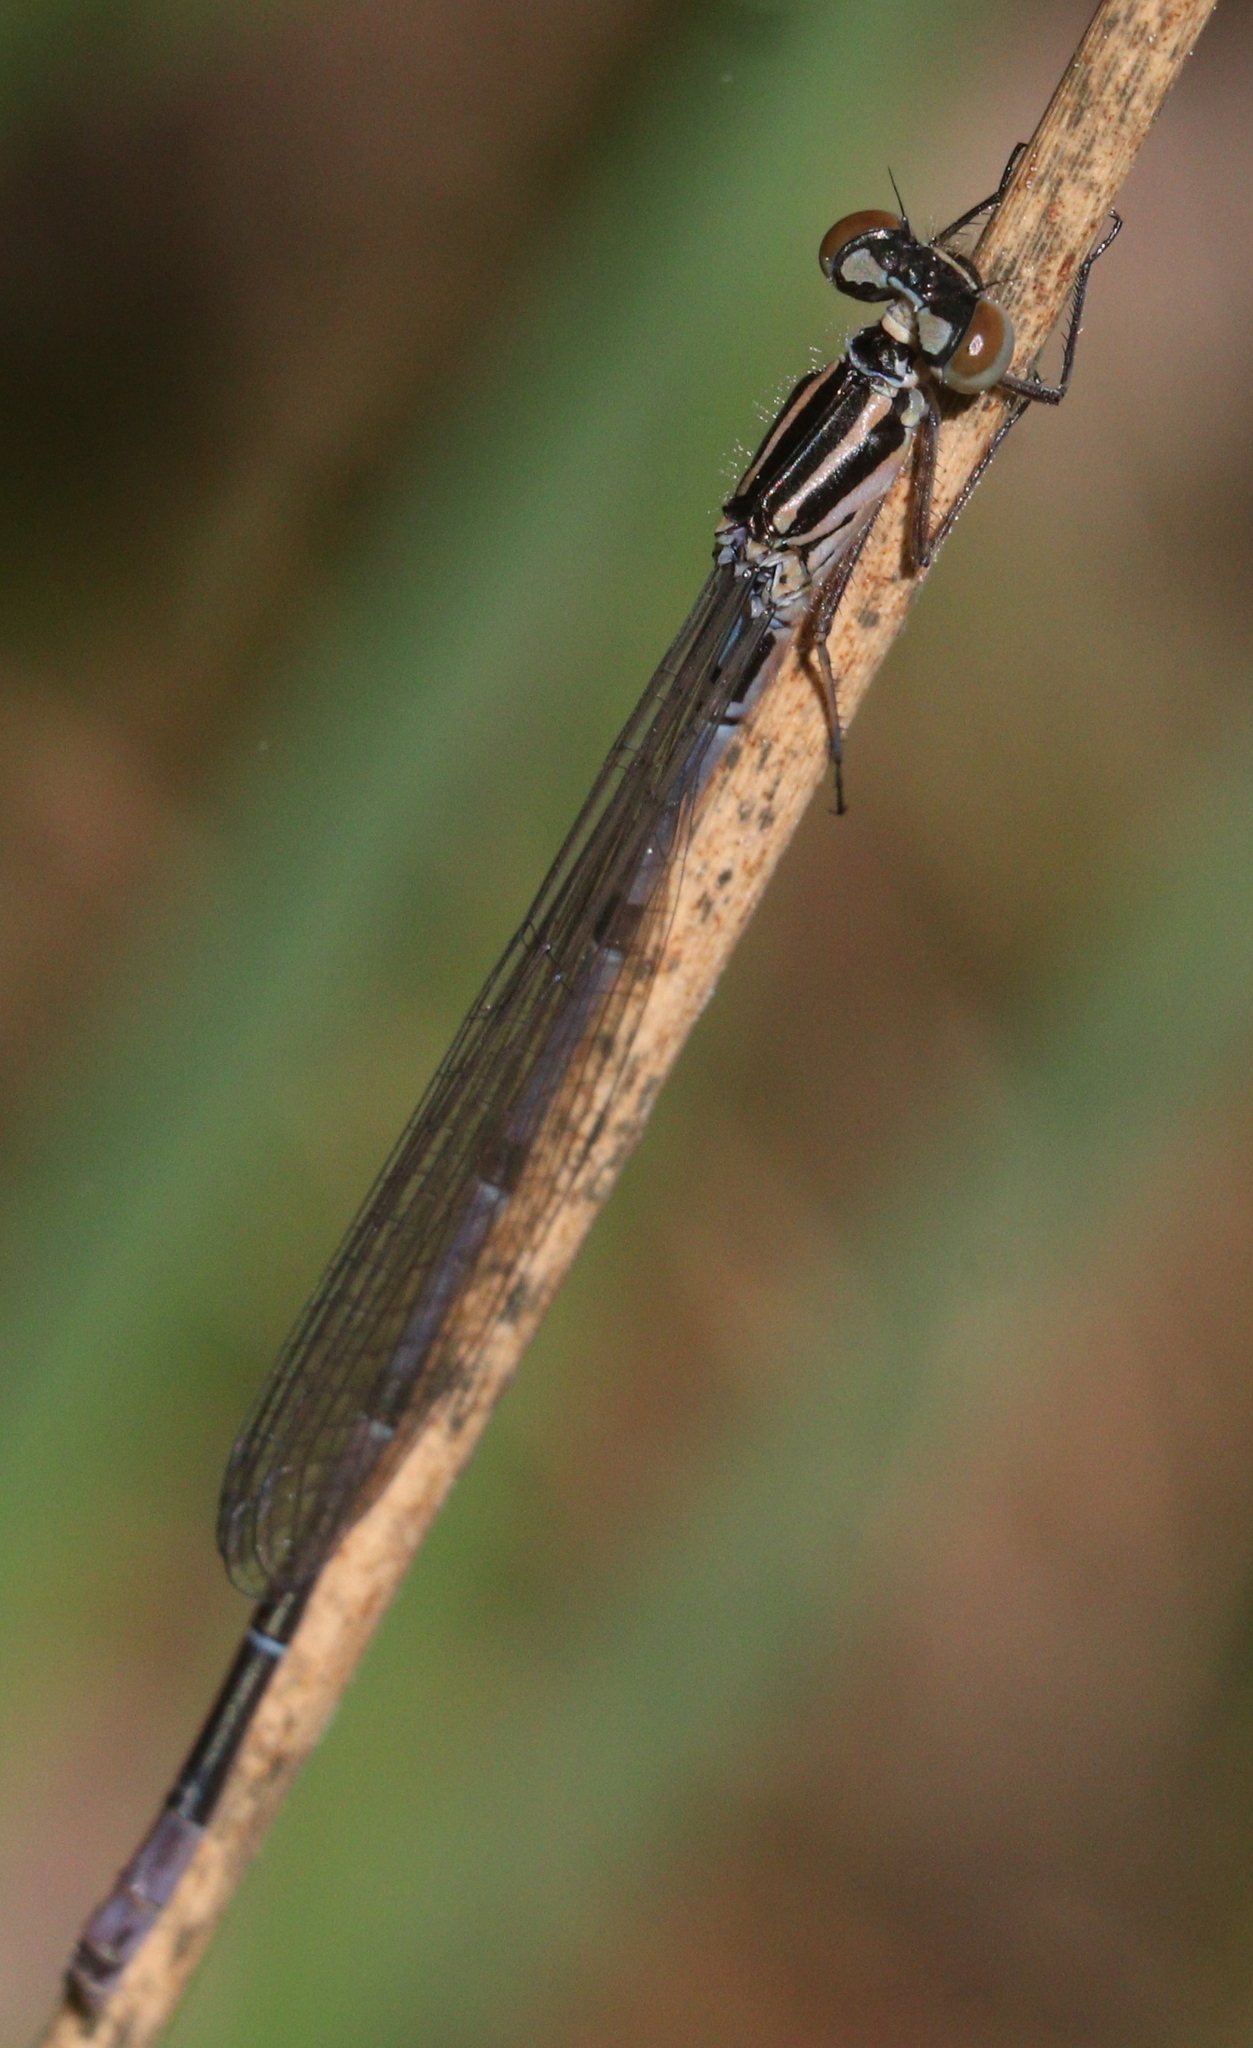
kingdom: Animalia
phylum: Arthropoda
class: Insecta
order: Odonata
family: Coenagrionidae
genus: Coenagrion
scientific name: Coenagrion puella
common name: Azure damselfly
